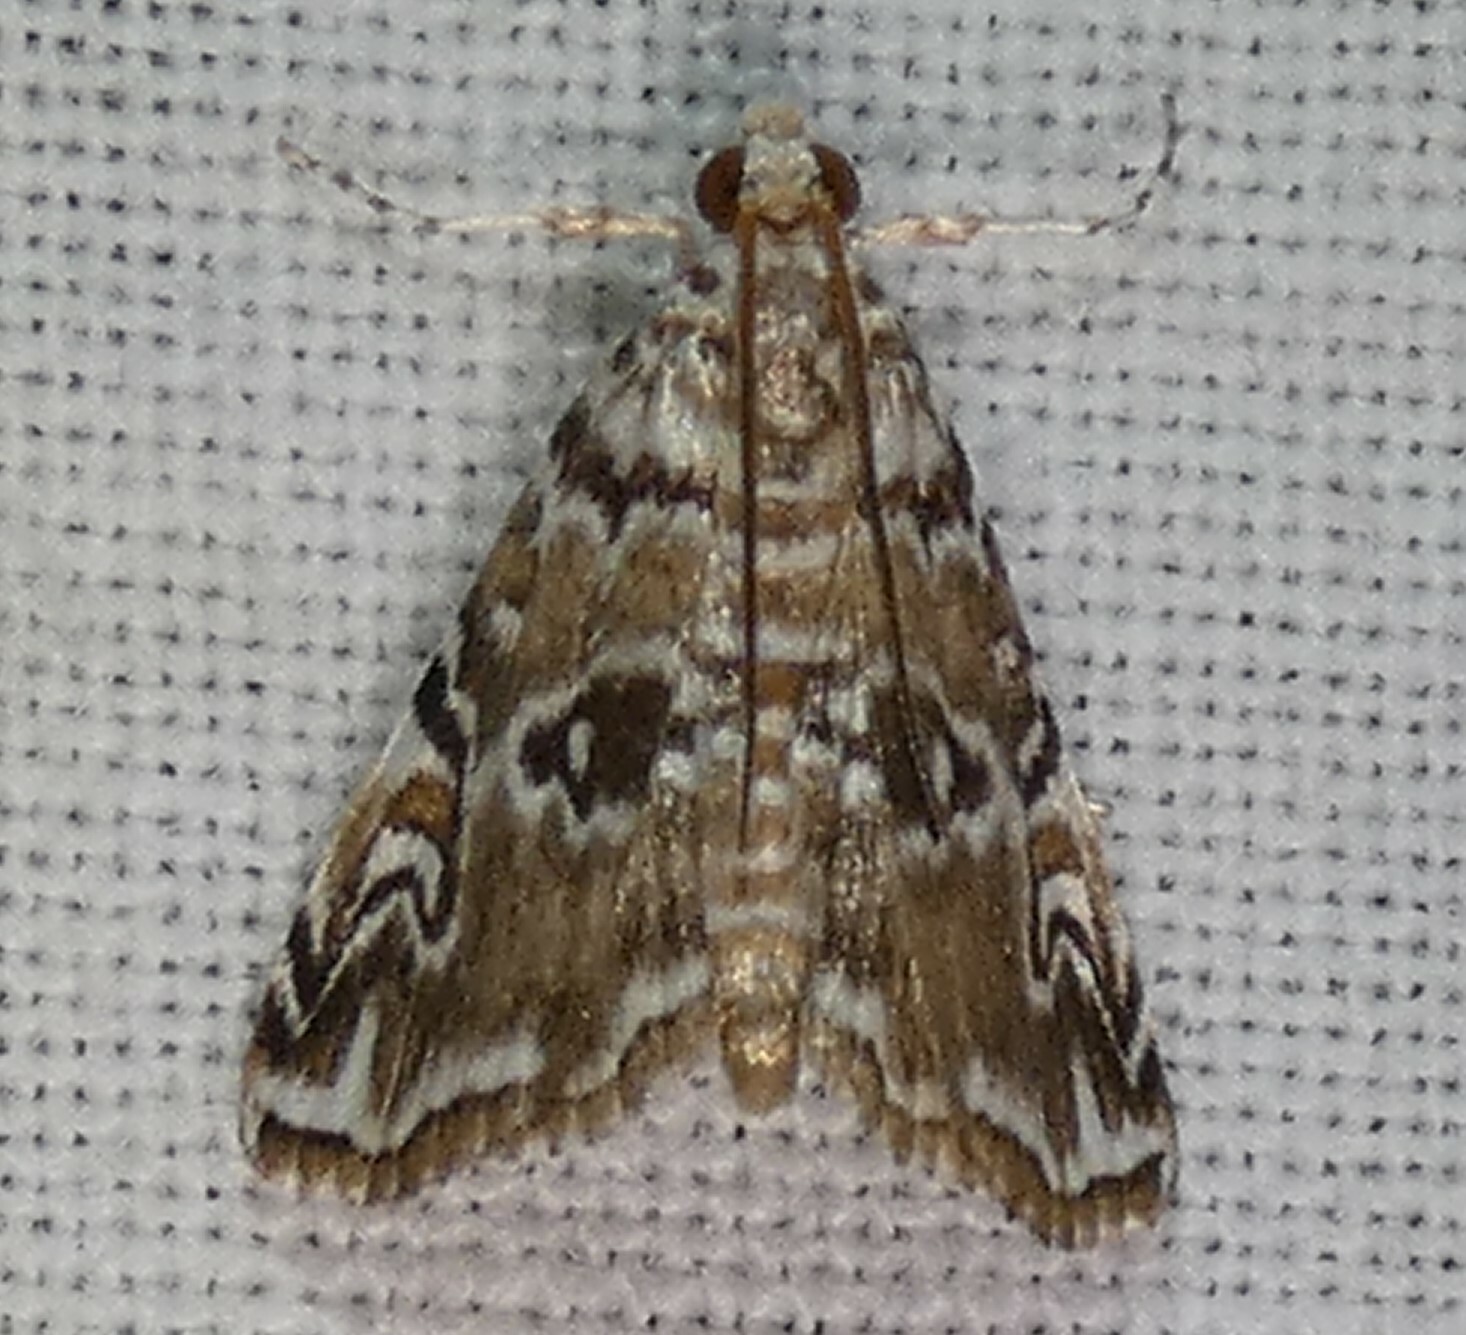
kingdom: Animalia
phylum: Arthropoda
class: Insecta
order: Lepidoptera
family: Crambidae
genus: Elophila
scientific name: Elophila gyralis
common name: Waterlily borer moth
